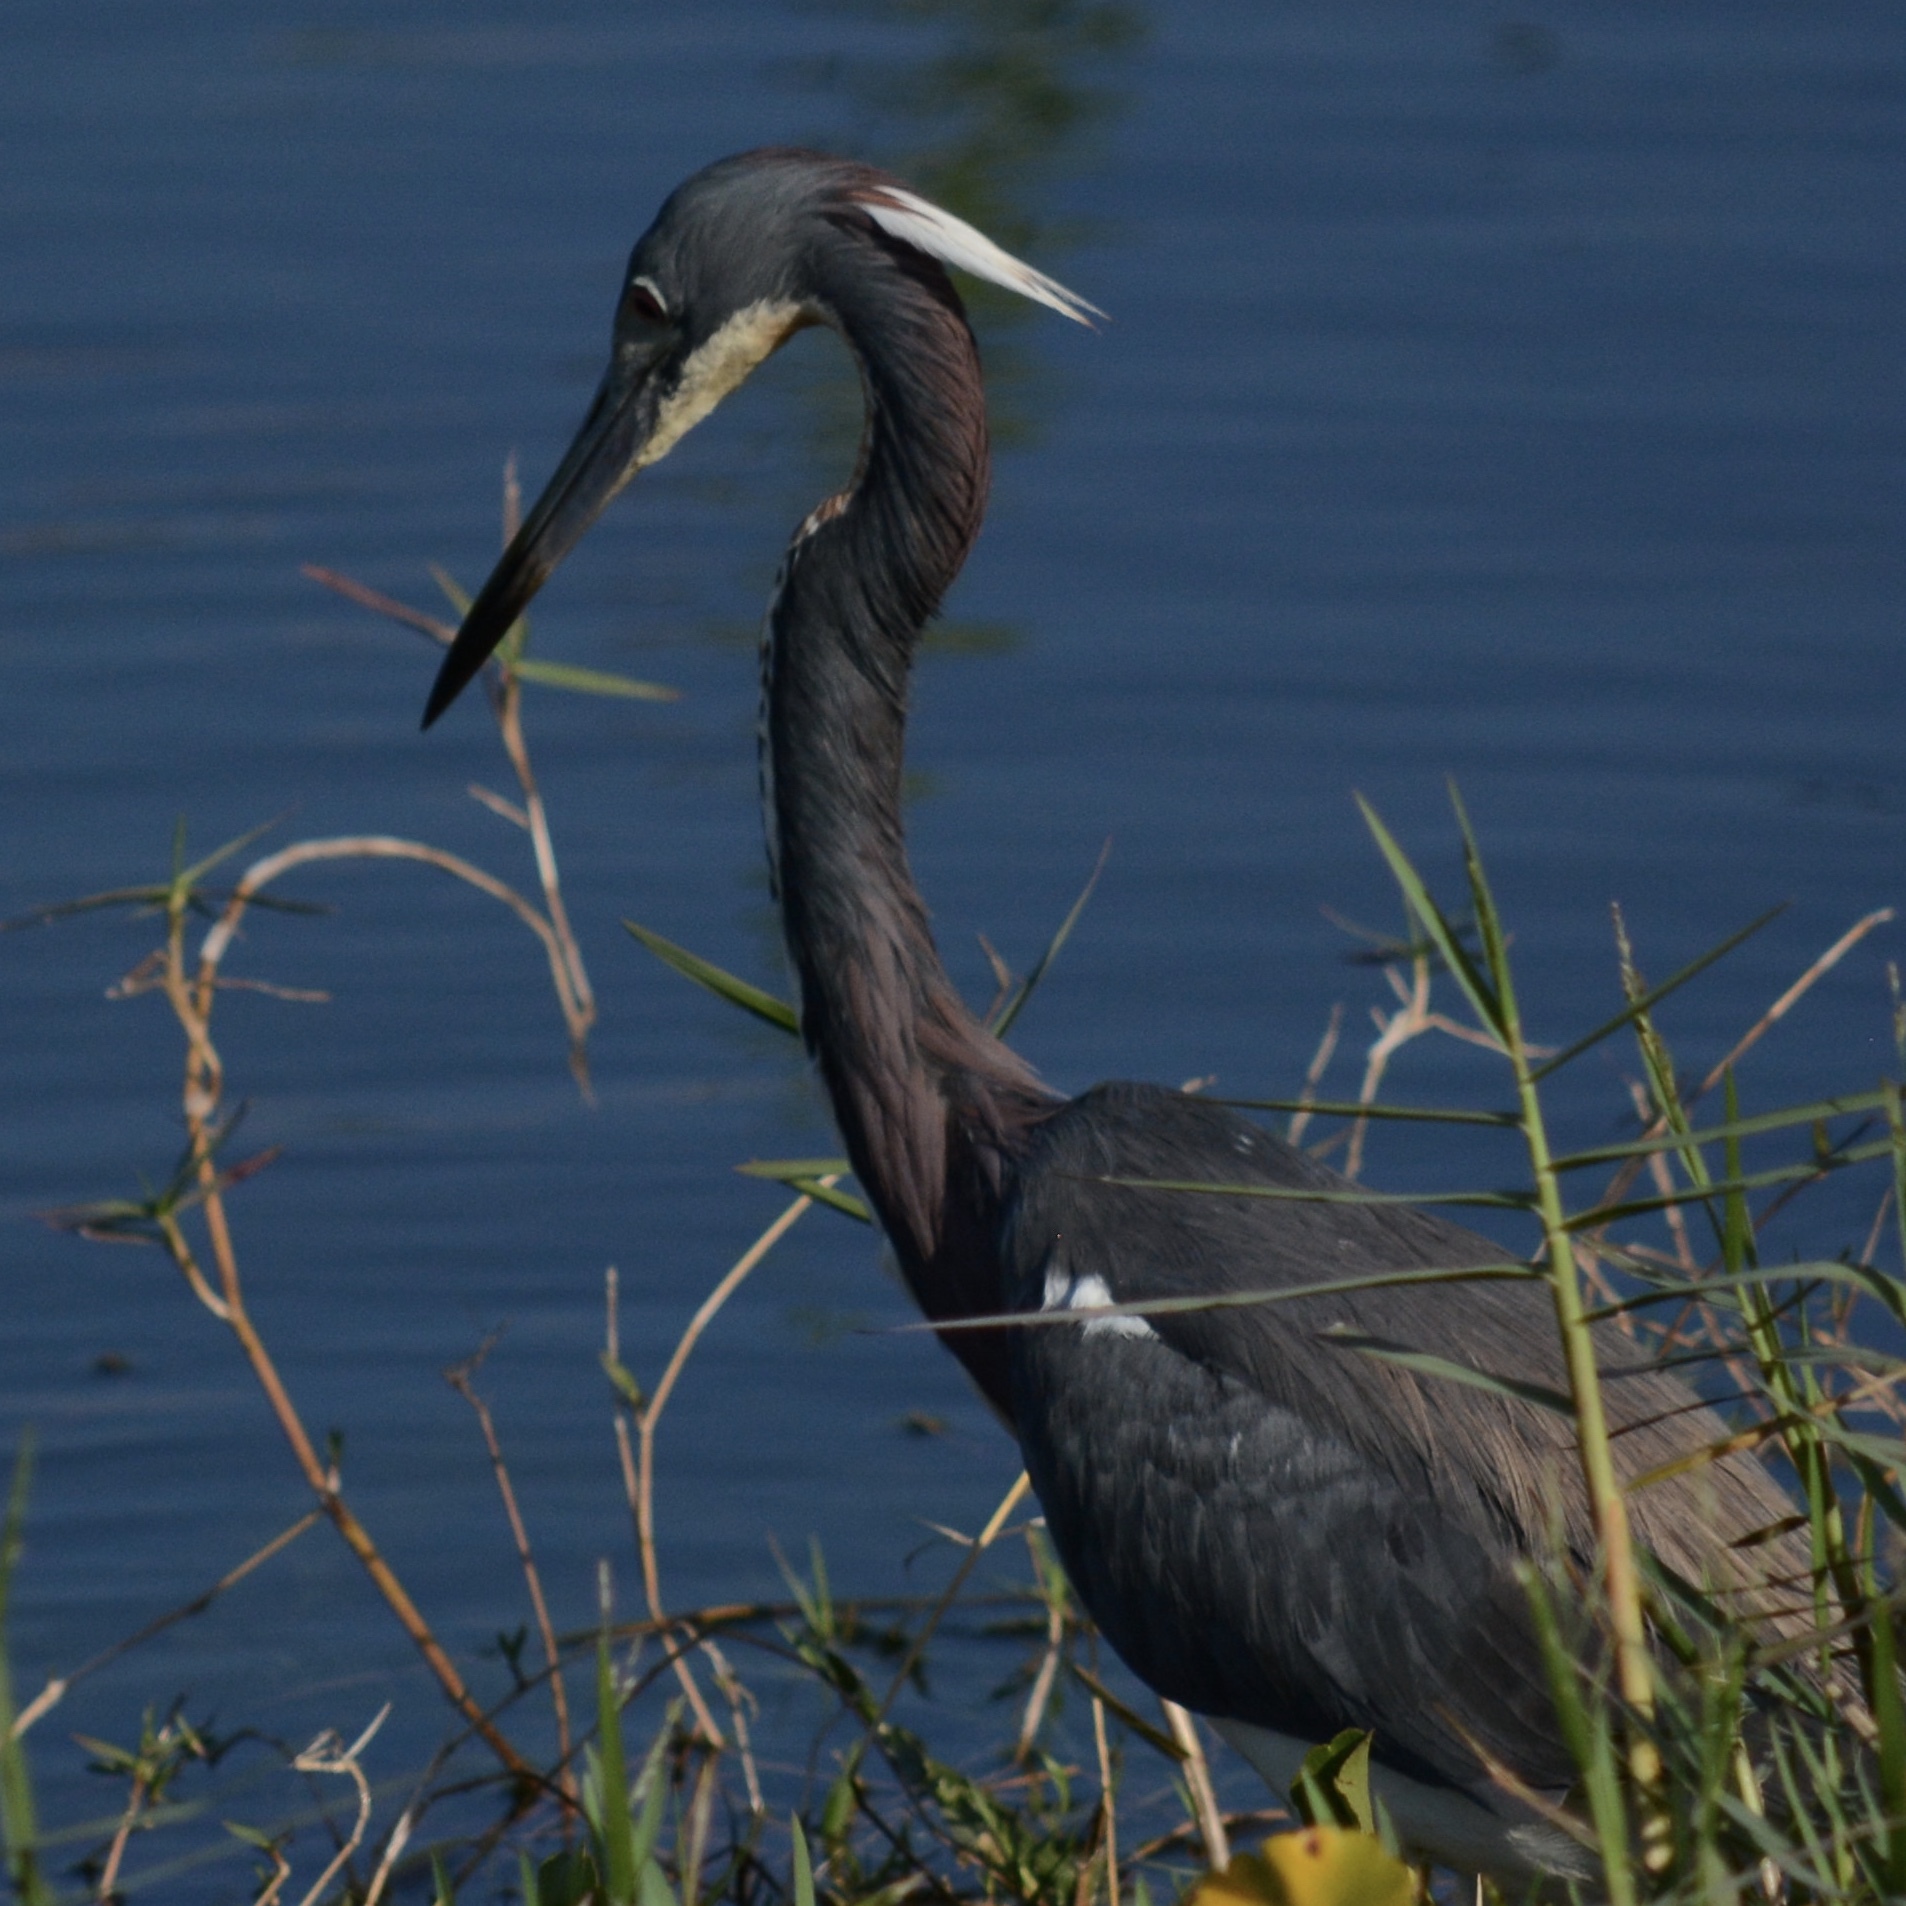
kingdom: Animalia
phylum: Chordata
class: Aves
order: Pelecaniformes
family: Ardeidae
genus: Egretta
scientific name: Egretta tricolor
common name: Tricolored heron
